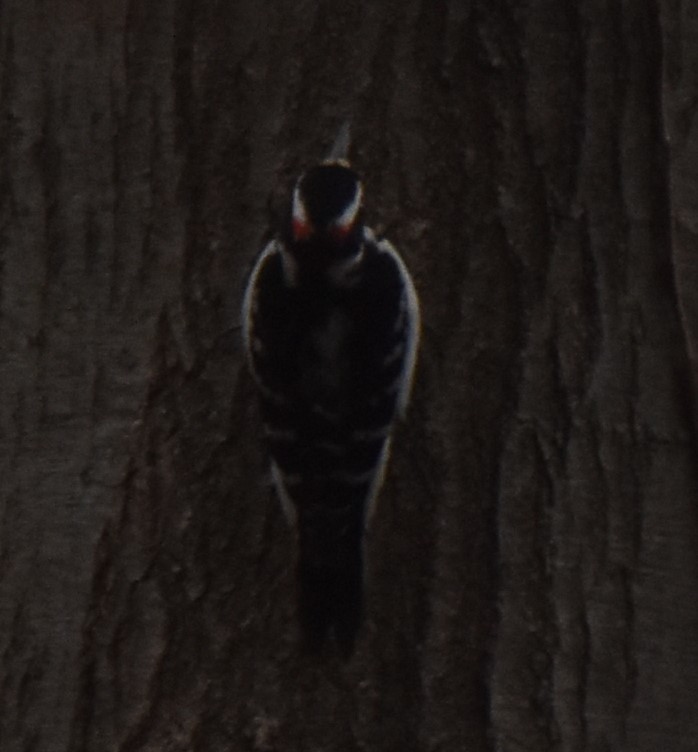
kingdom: Animalia
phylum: Chordata
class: Aves
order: Piciformes
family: Picidae
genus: Leuconotopicus
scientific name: Leuconotopicus villosus
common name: Hairy woodpecker
